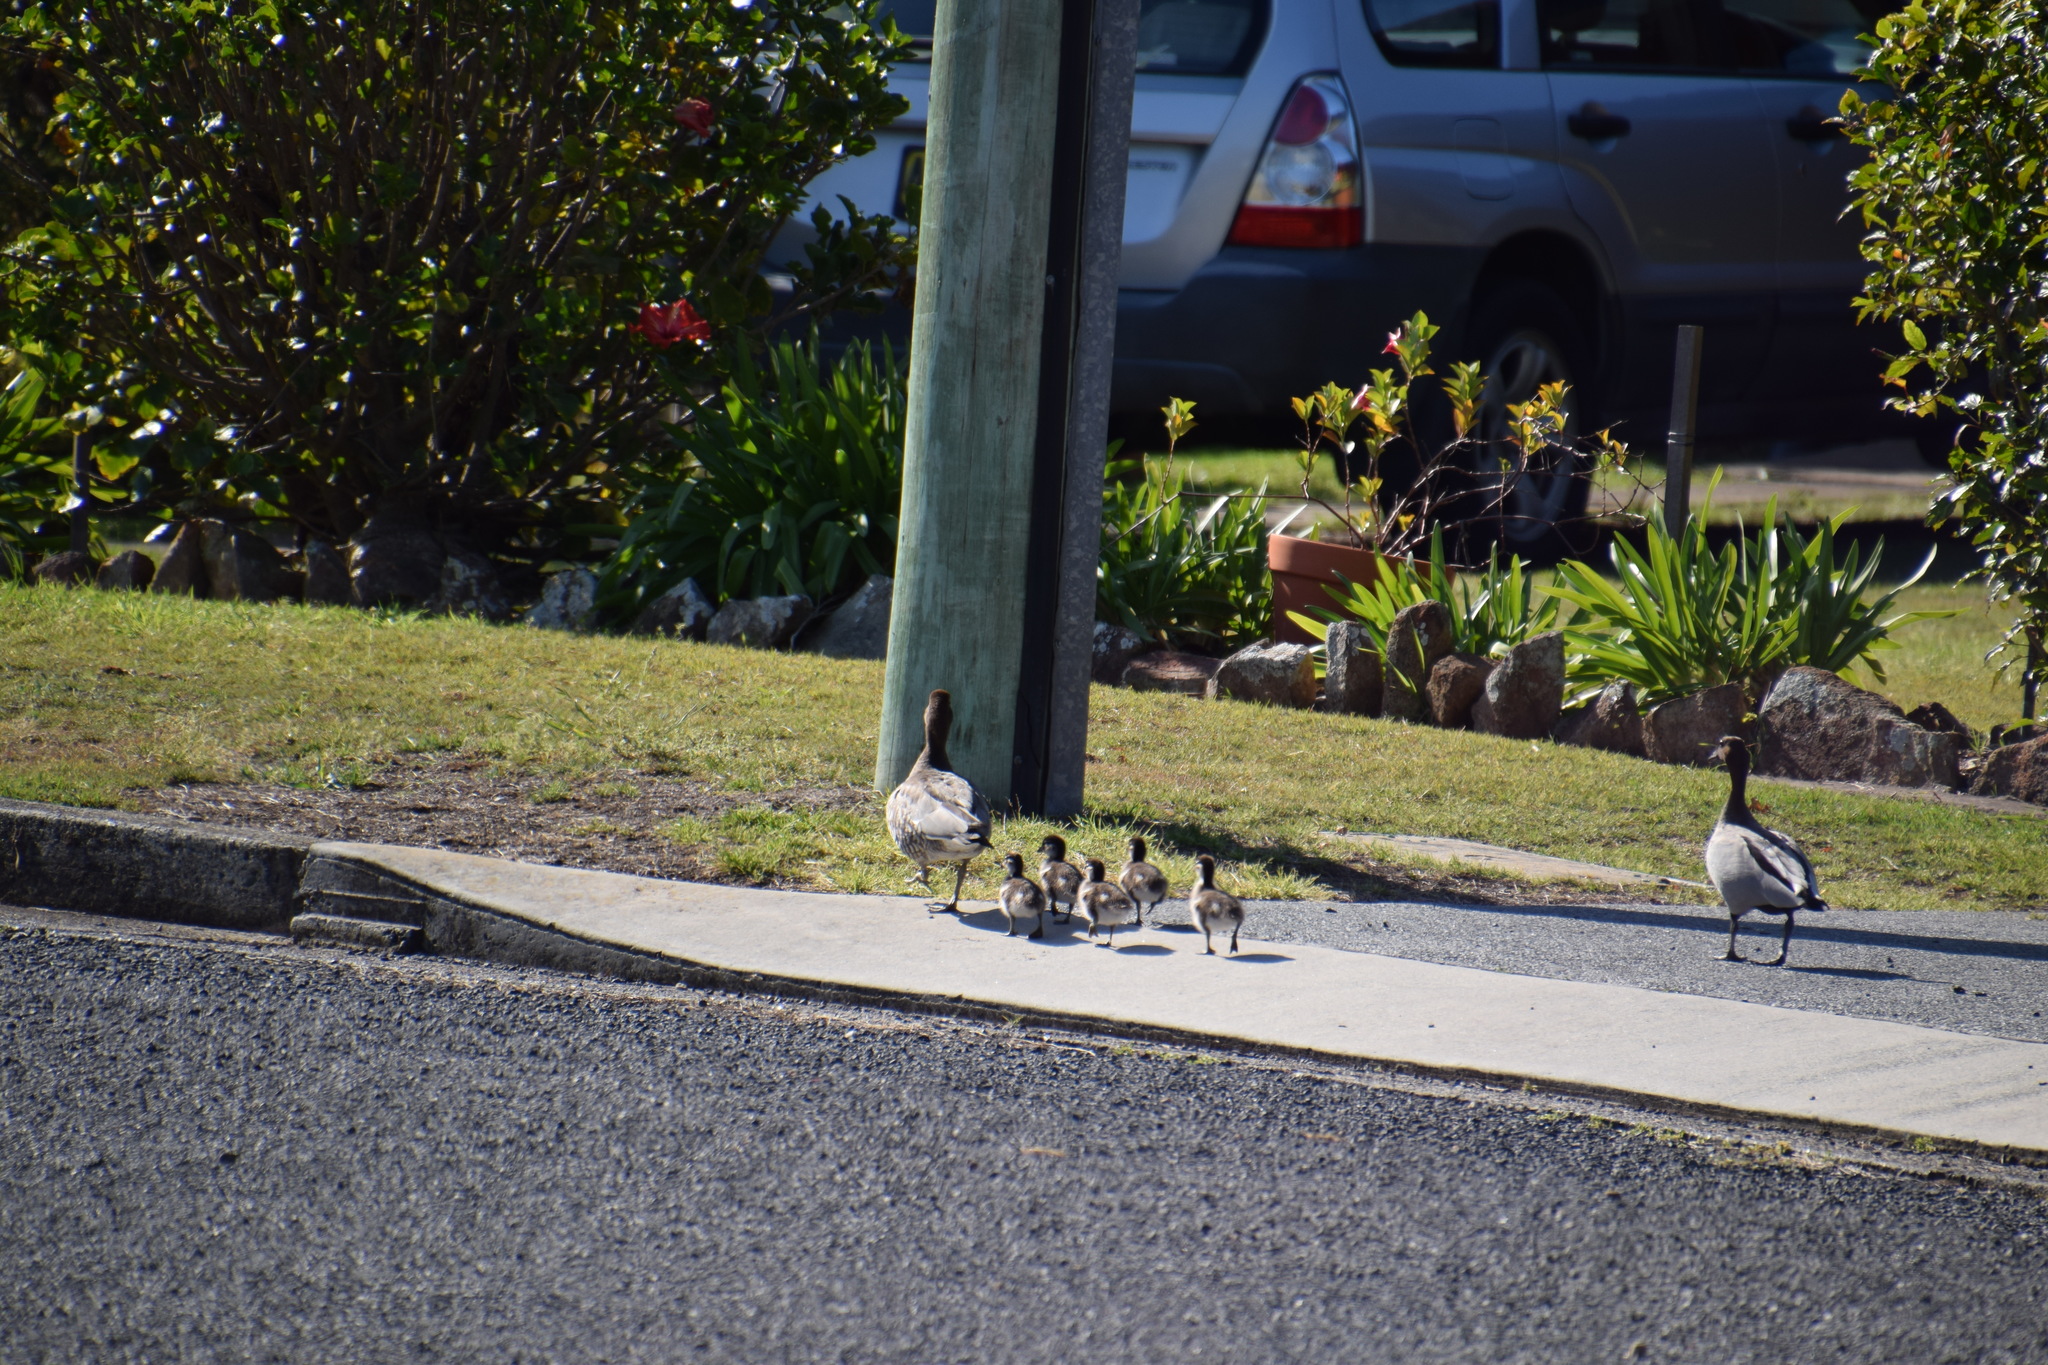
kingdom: Animalia
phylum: Chordata
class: Aves
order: Anseriformes
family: Anatidae
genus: Chenonetta
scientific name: Chenonetta jubata
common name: Maned duck
